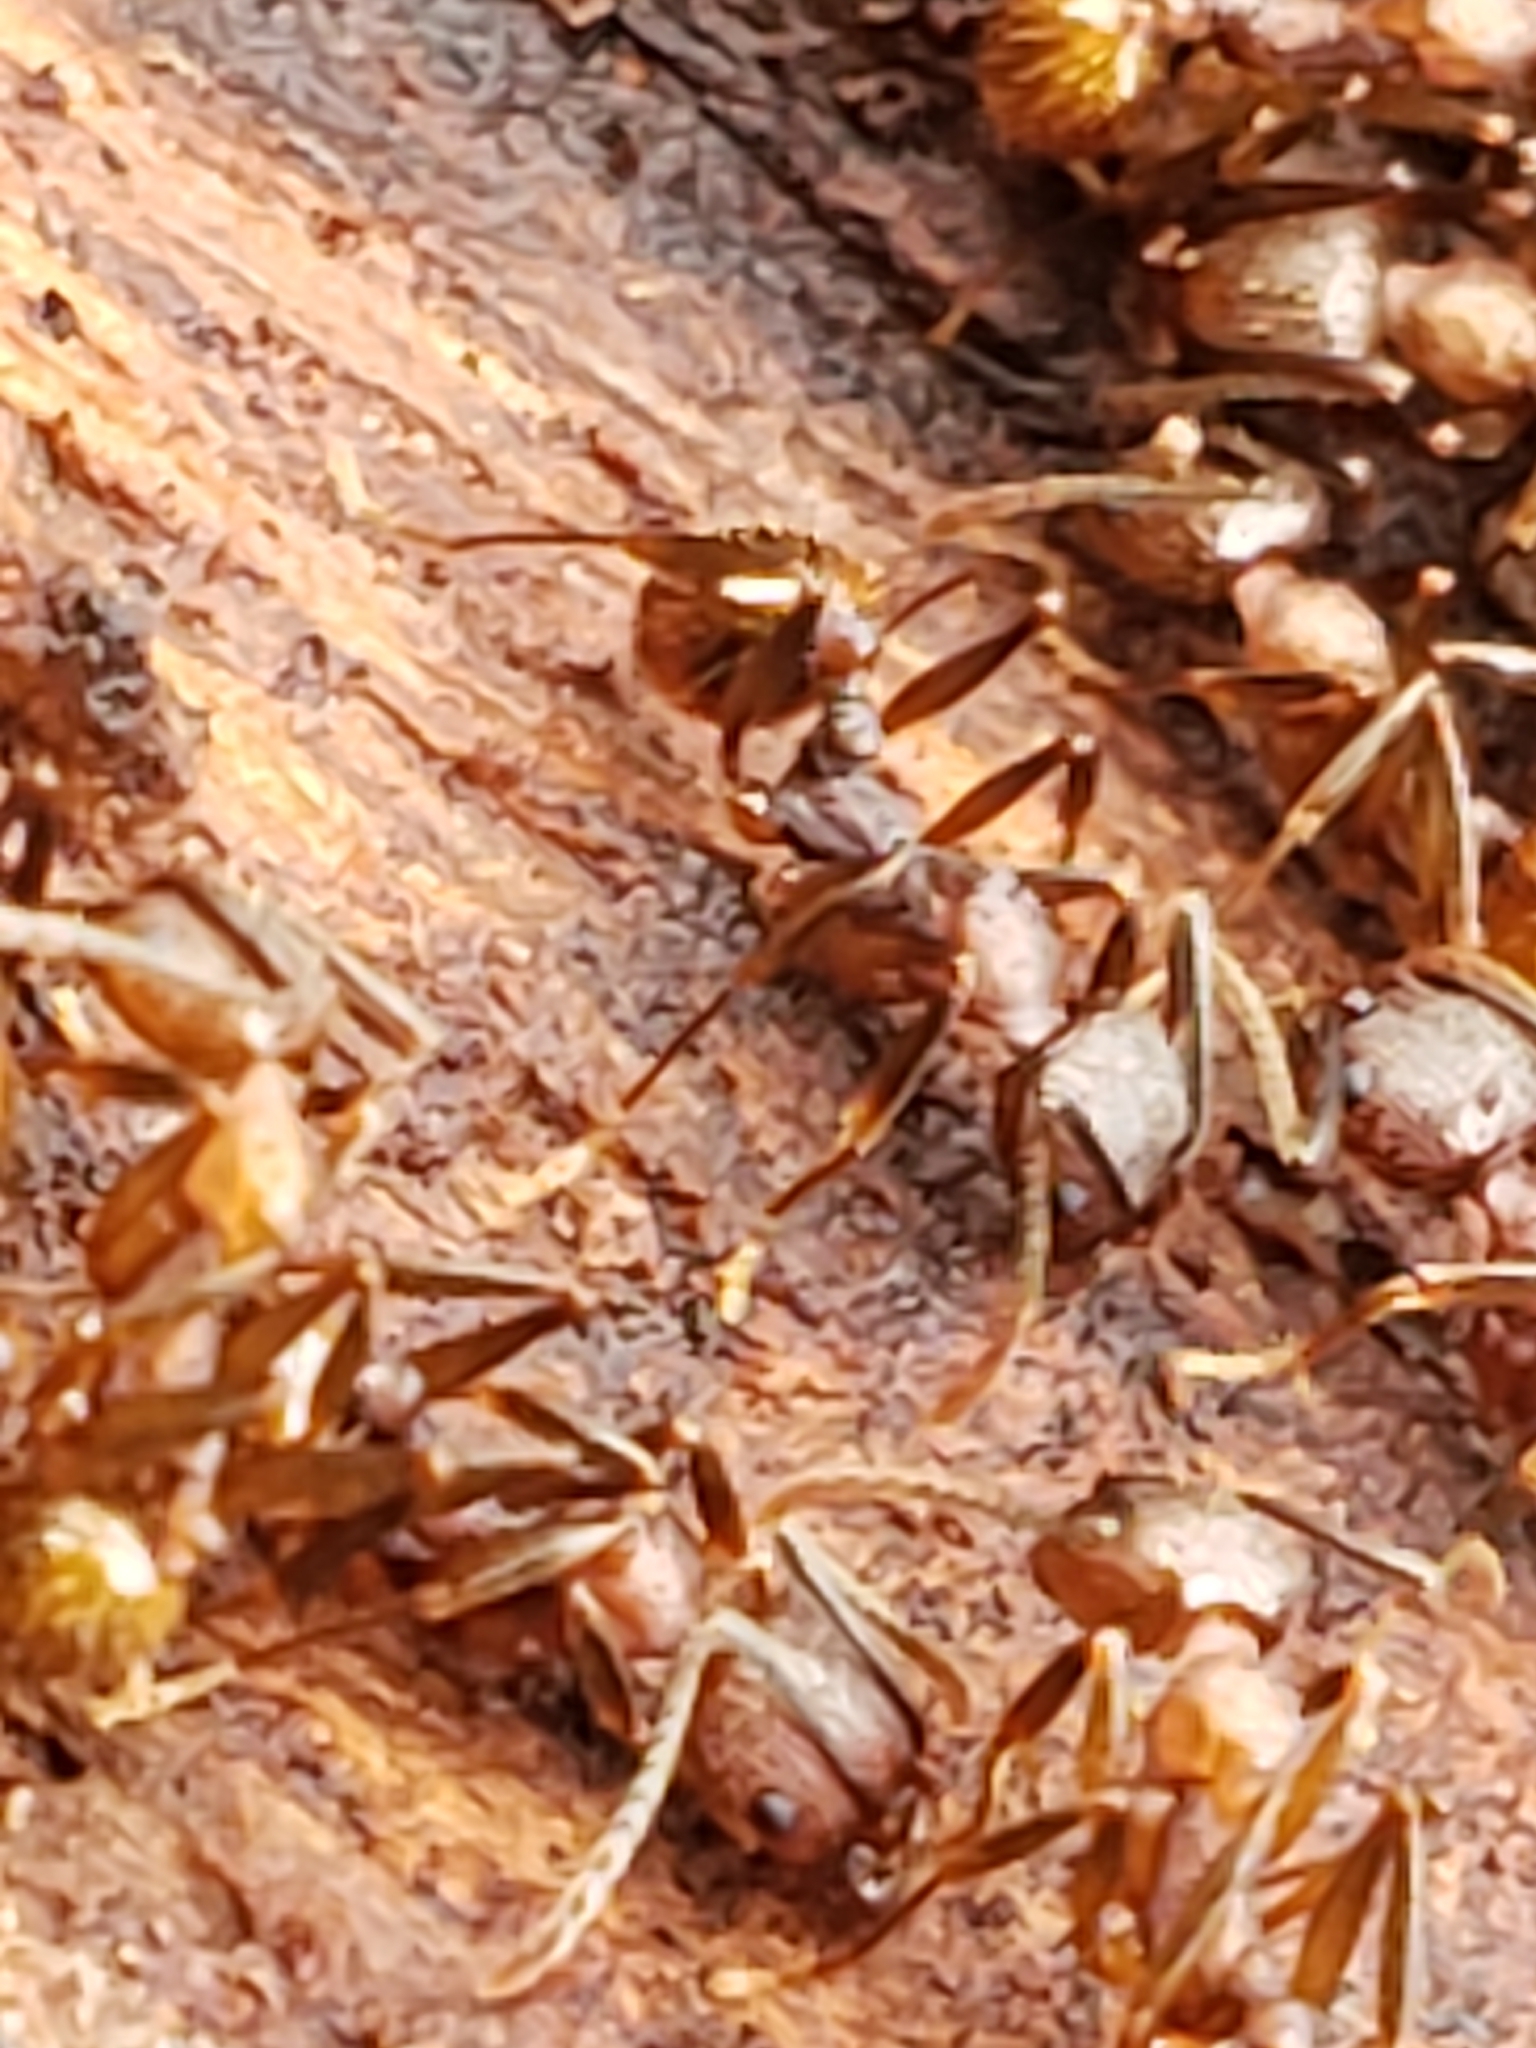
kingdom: Animalia
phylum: Arthropoda
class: Insecta
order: Hymenoptera
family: Formicidae
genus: Aphaenogaster
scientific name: Aphaenogaster fulva
